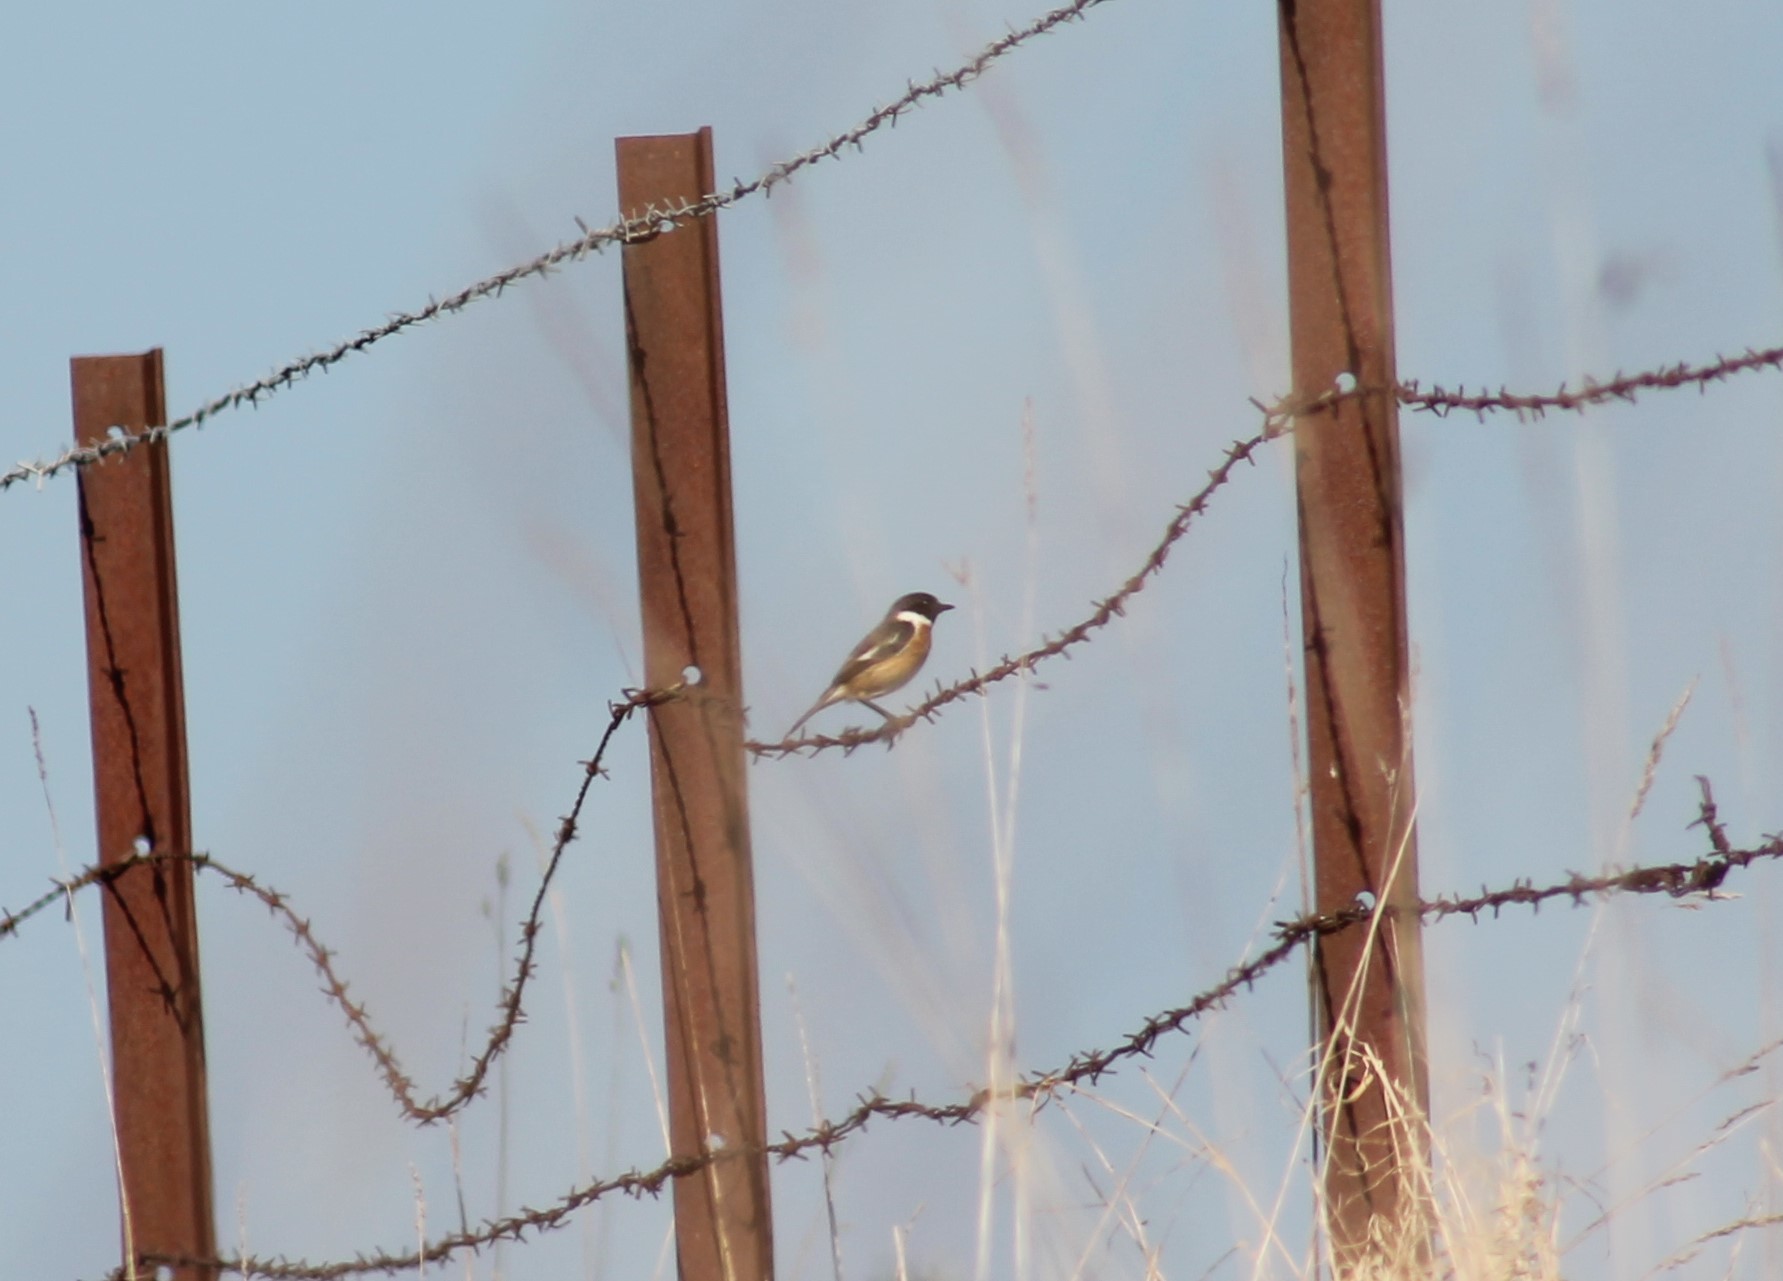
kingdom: Animalia
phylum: Chordata
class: Aves
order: Passeriformes
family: Muscicapidae
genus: Saxicola
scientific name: Saxicola rubicola
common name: European stonechat
